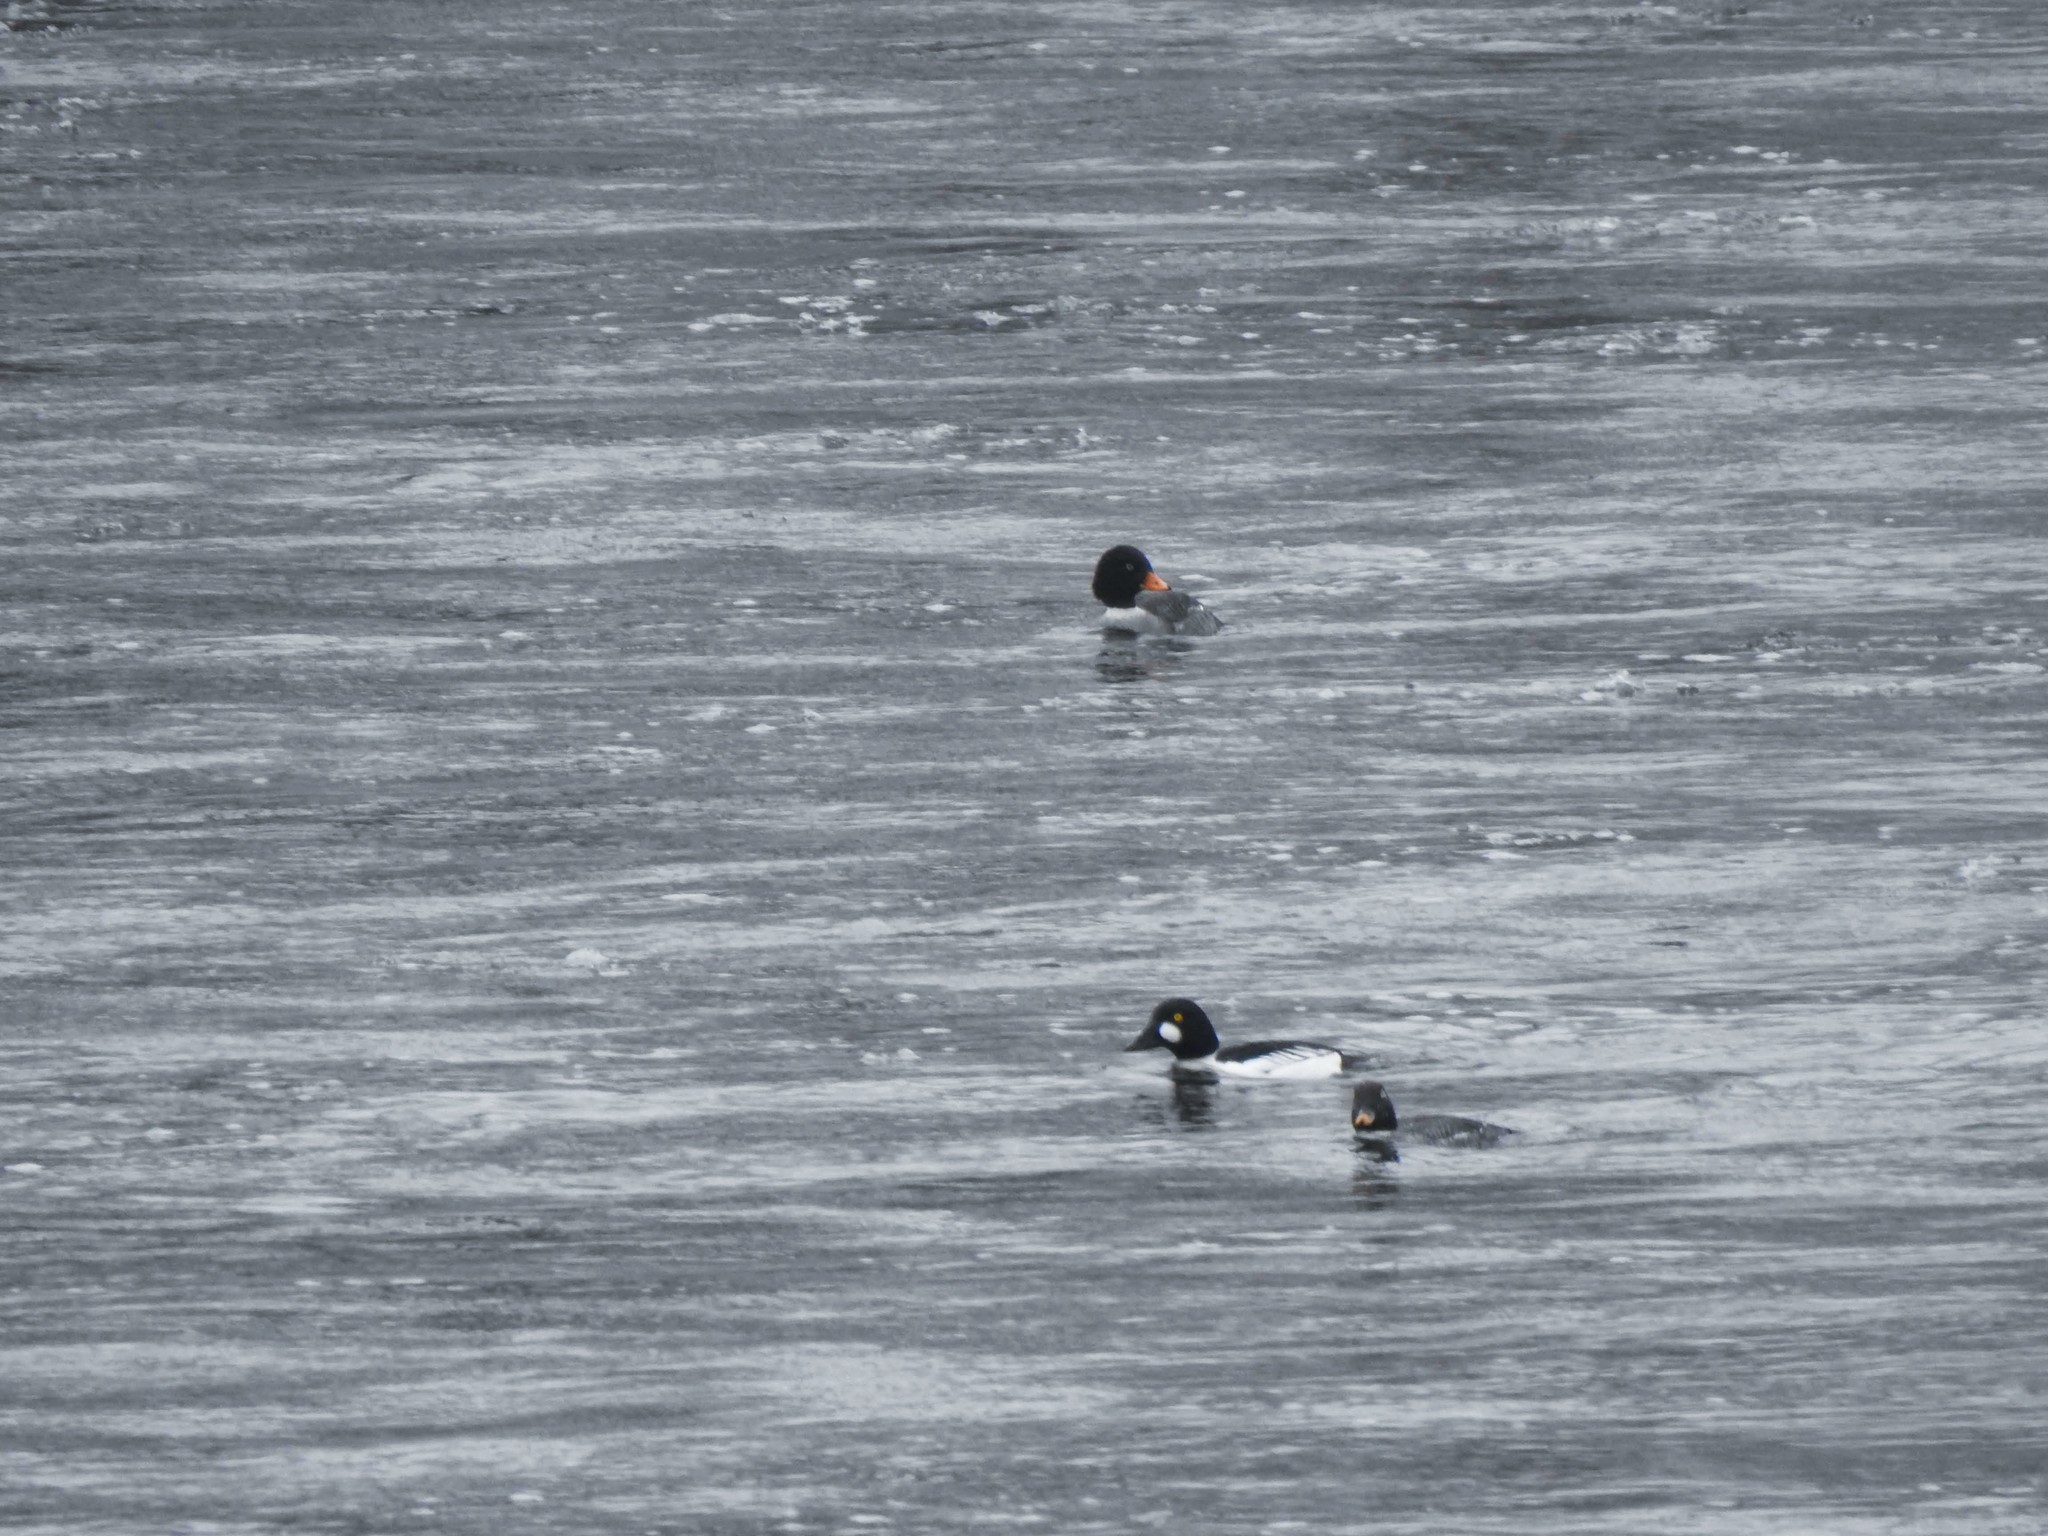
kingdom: Animalia
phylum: Chordata
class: Aves
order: Anseriformes
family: Anatidae
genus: Bucephala
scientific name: Bucephala islandica
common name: Barrow's goldeneye
